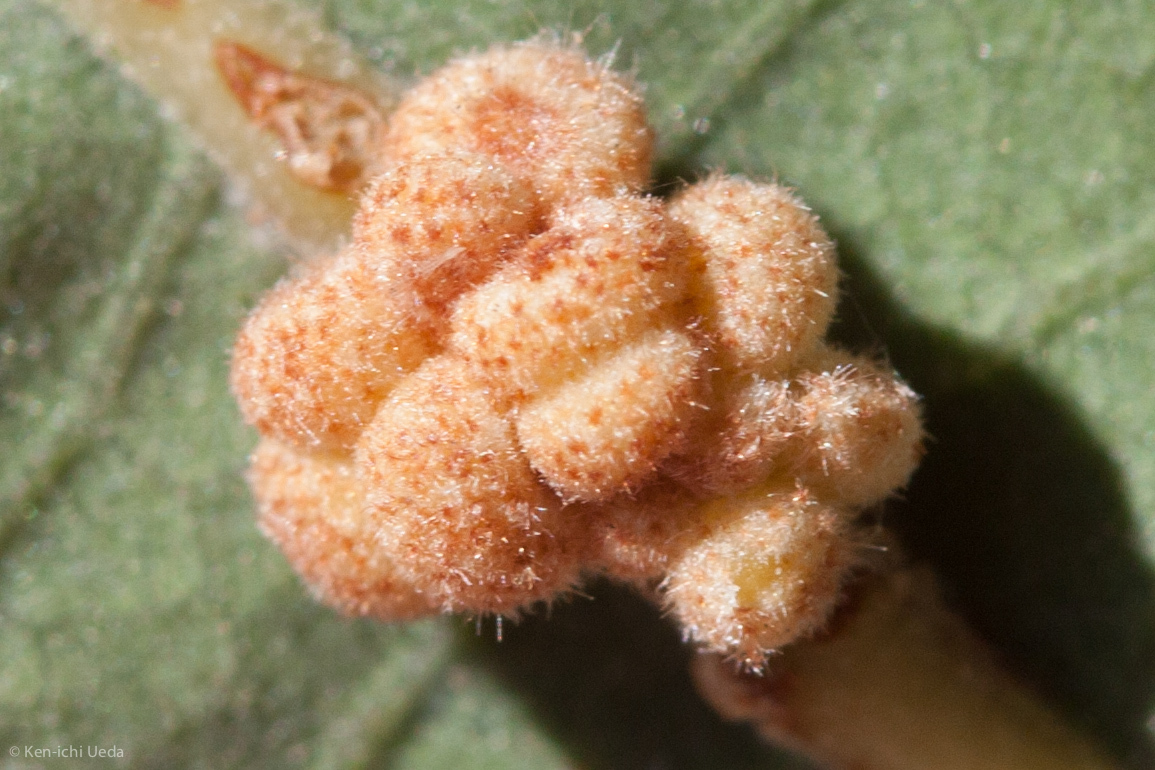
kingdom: Animalia
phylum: Arthropoda
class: Insecta
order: Hymenoptera
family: Cynipidae
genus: Andricus
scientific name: Andricus
